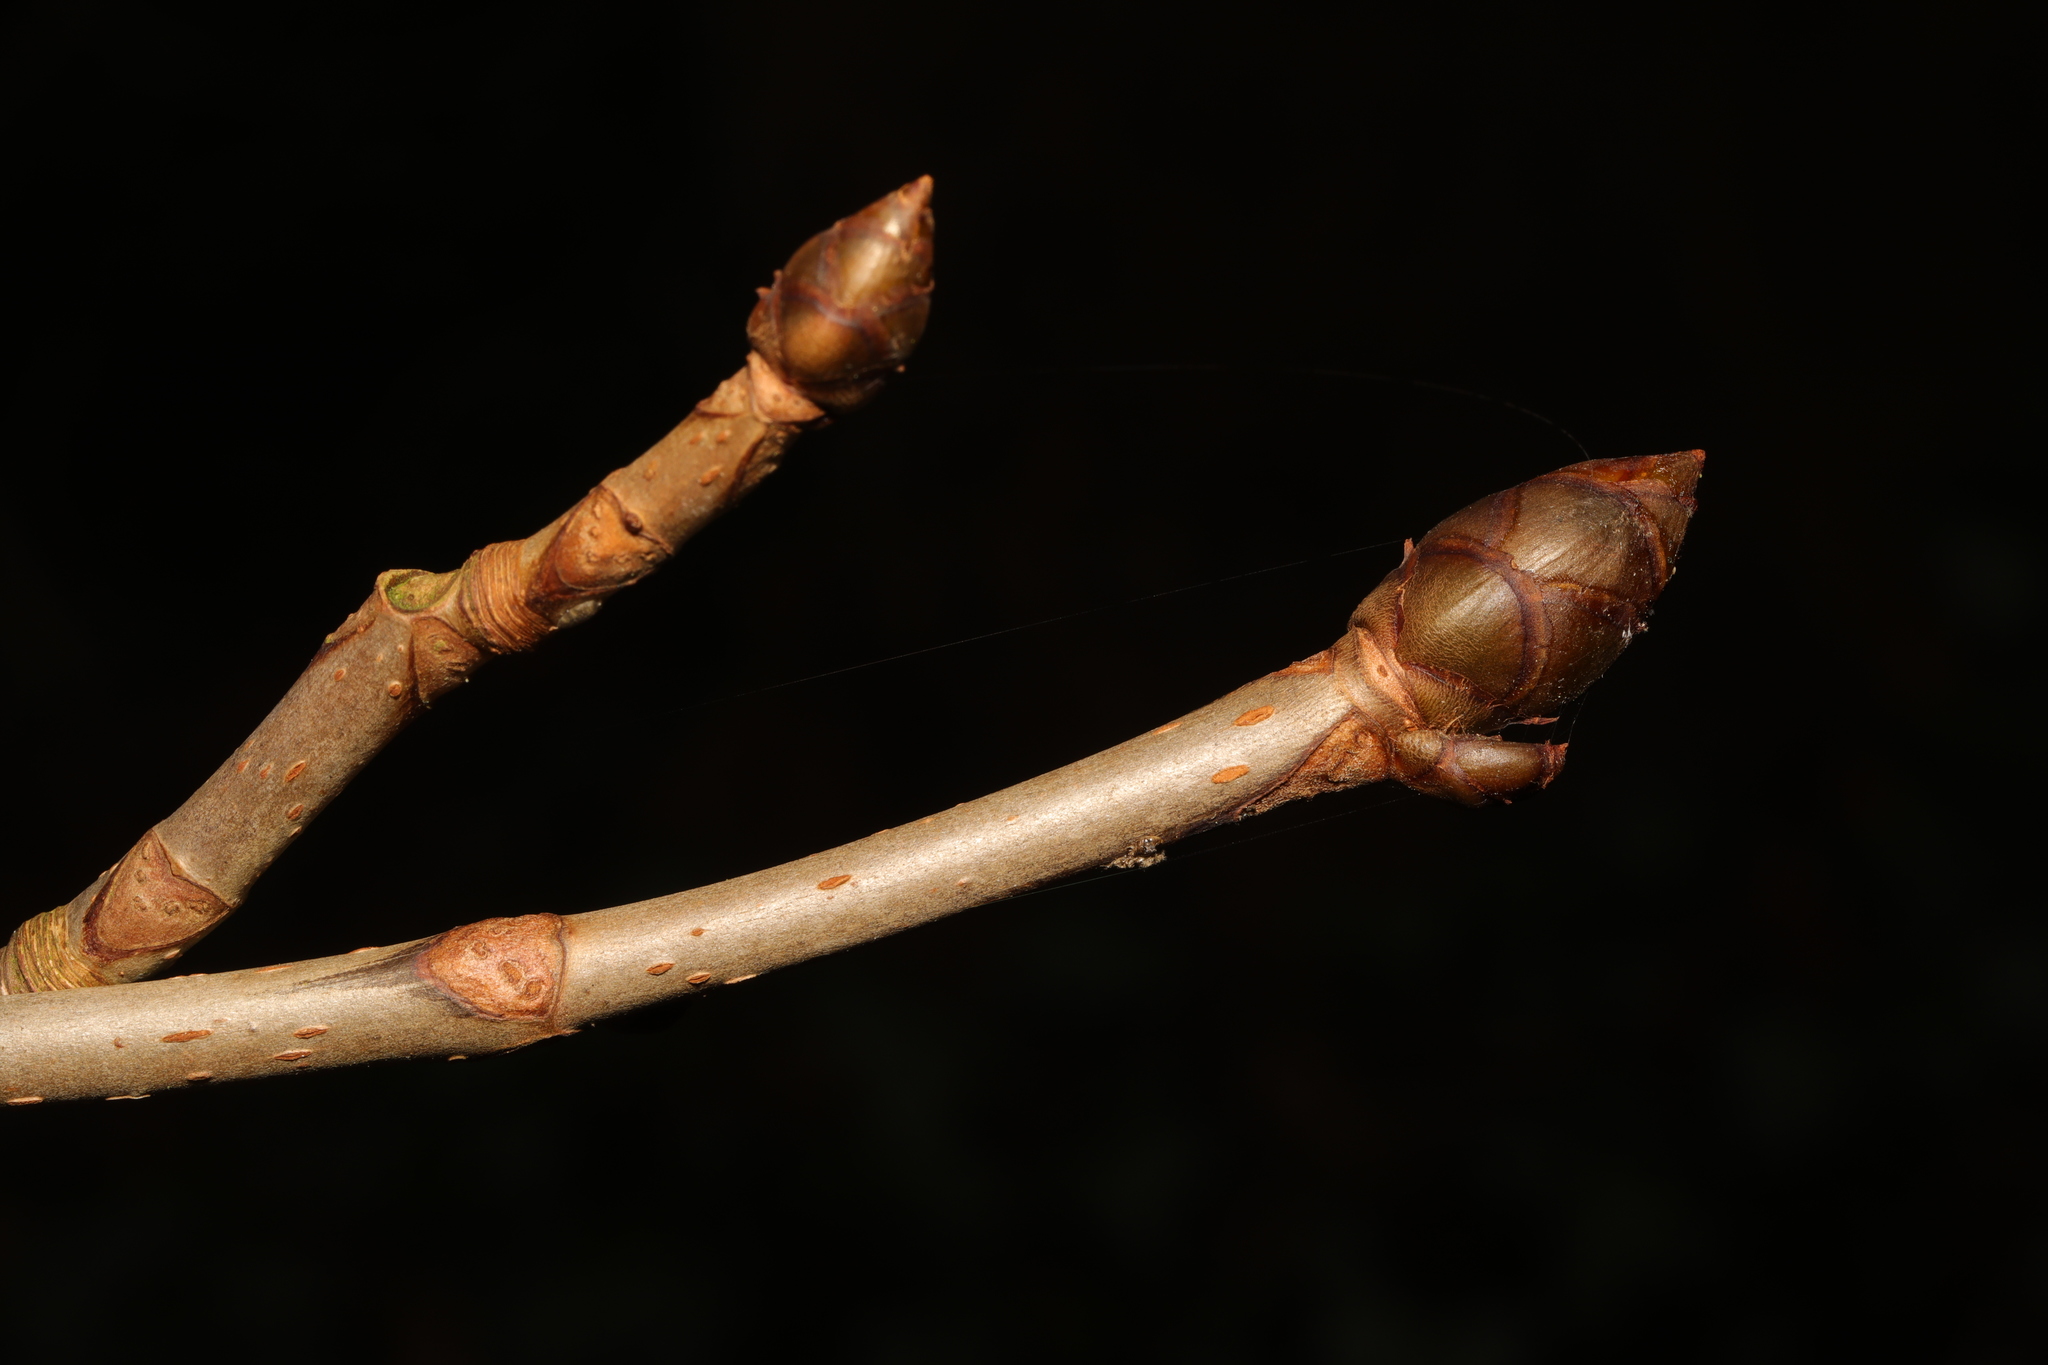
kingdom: Plantae
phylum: Tracheophyta
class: Magnoliopsida
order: Sapindales
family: Sapindaceae
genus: Aesculus
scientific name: Aesculus hippocastanum
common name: Horse-chestnut
